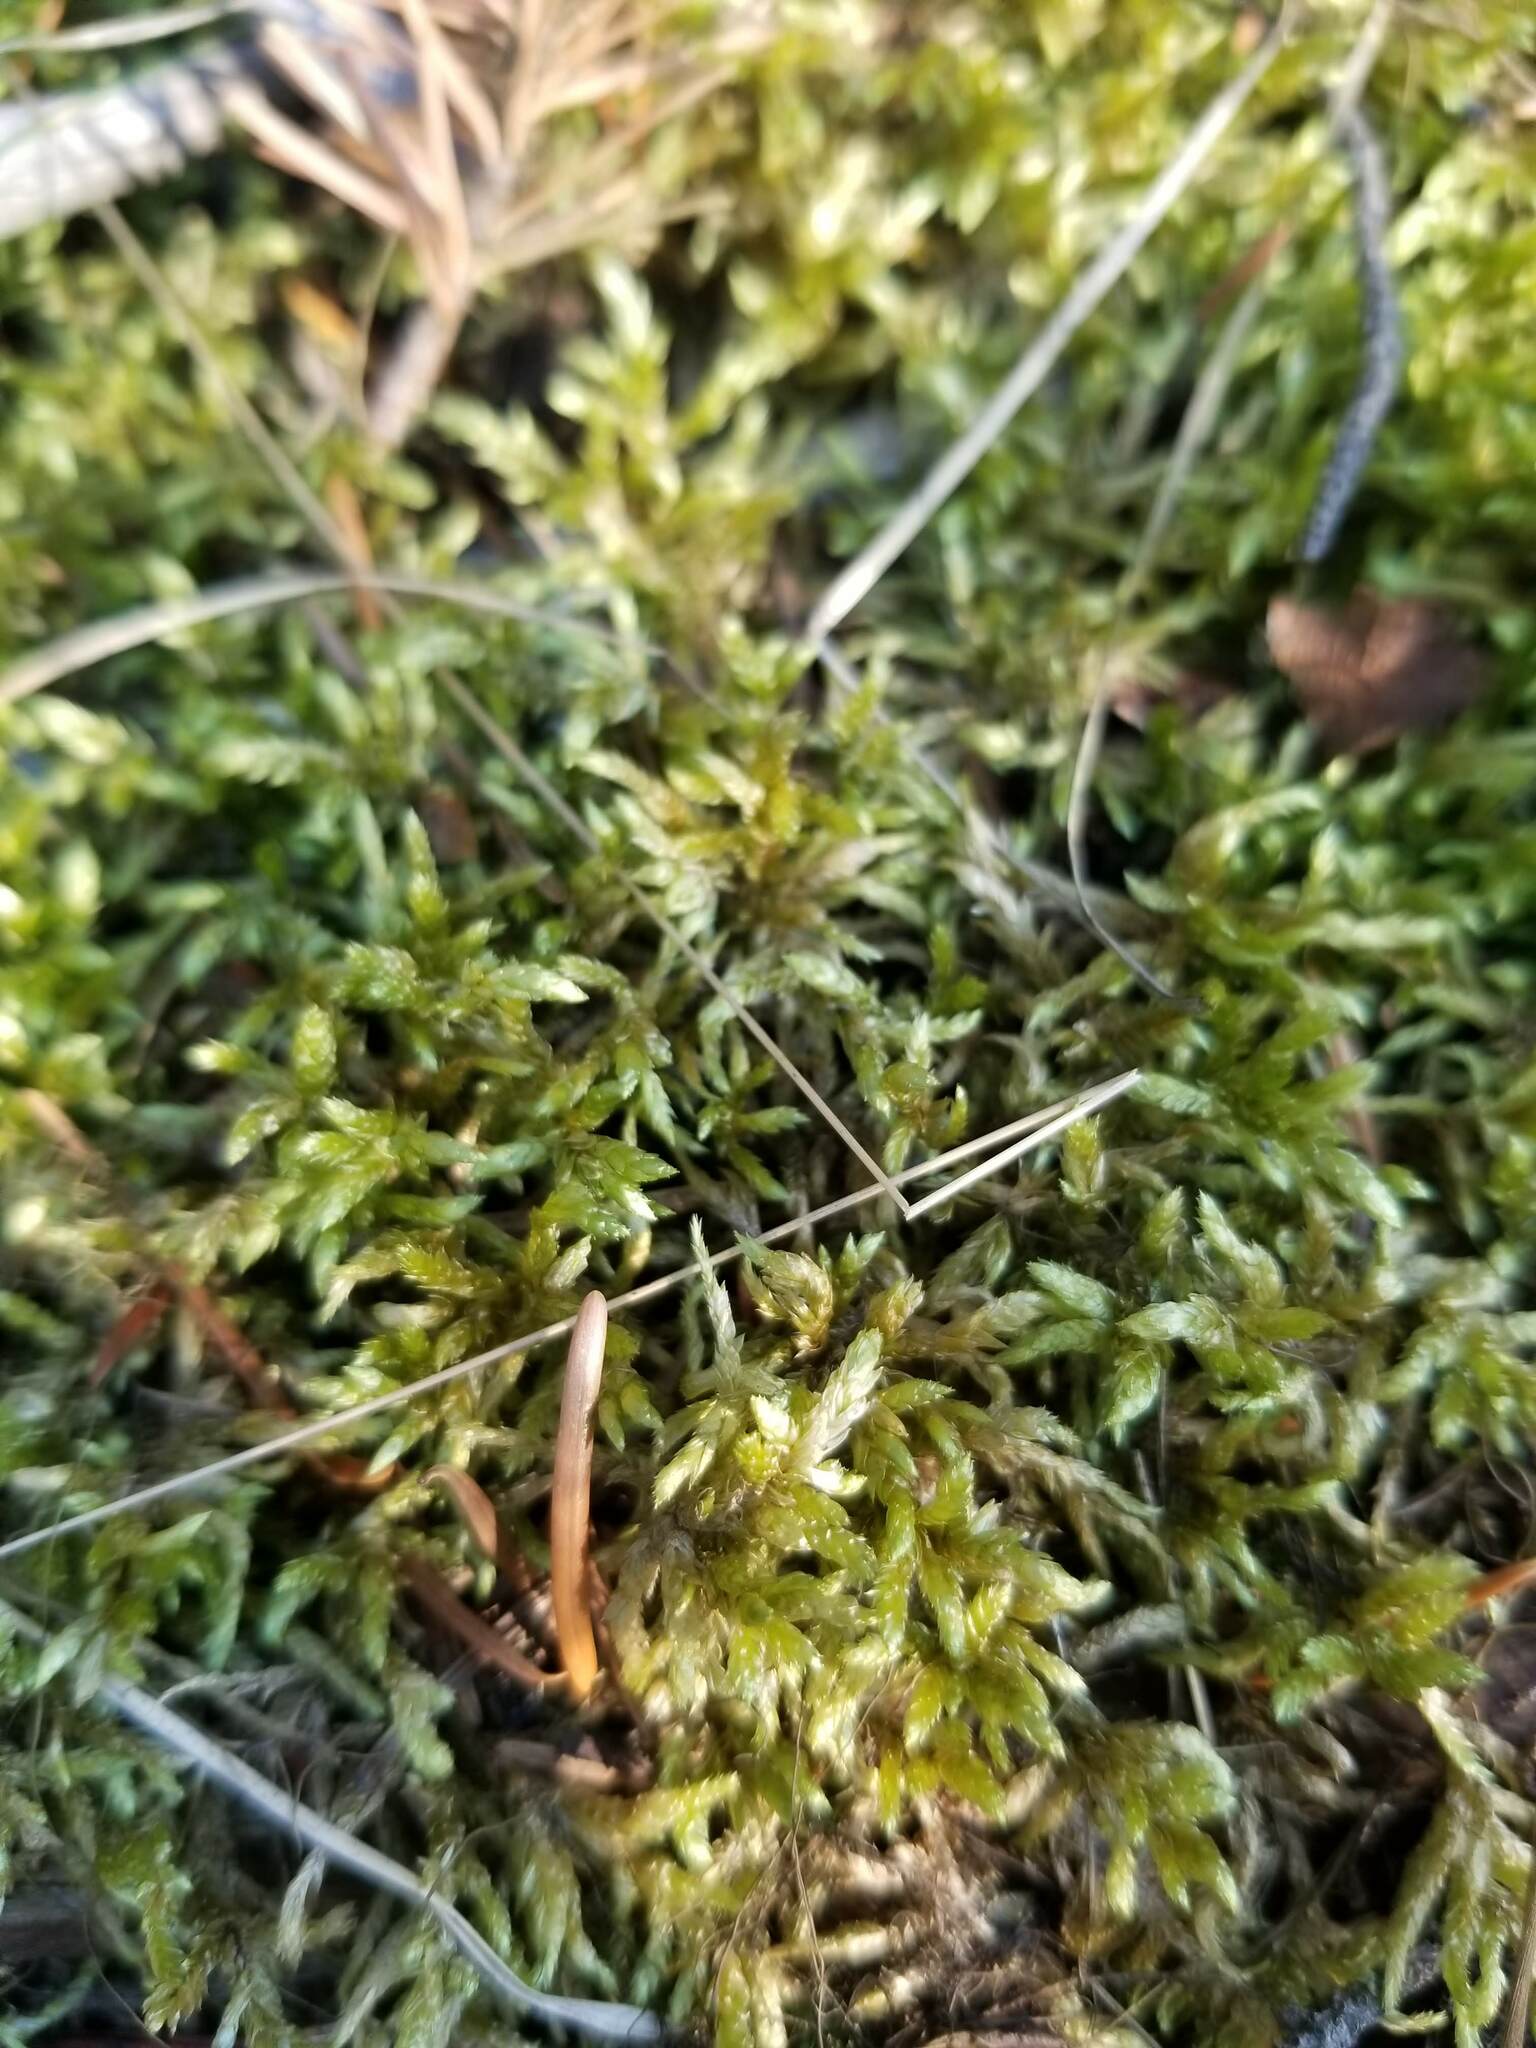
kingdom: Plantae
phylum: Bryophyta
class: Bryopsida
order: Hypnales
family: Hylocomiaceae
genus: Pleurozium
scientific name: Pleurozium schreberi
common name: Red-stemmed feather moss
